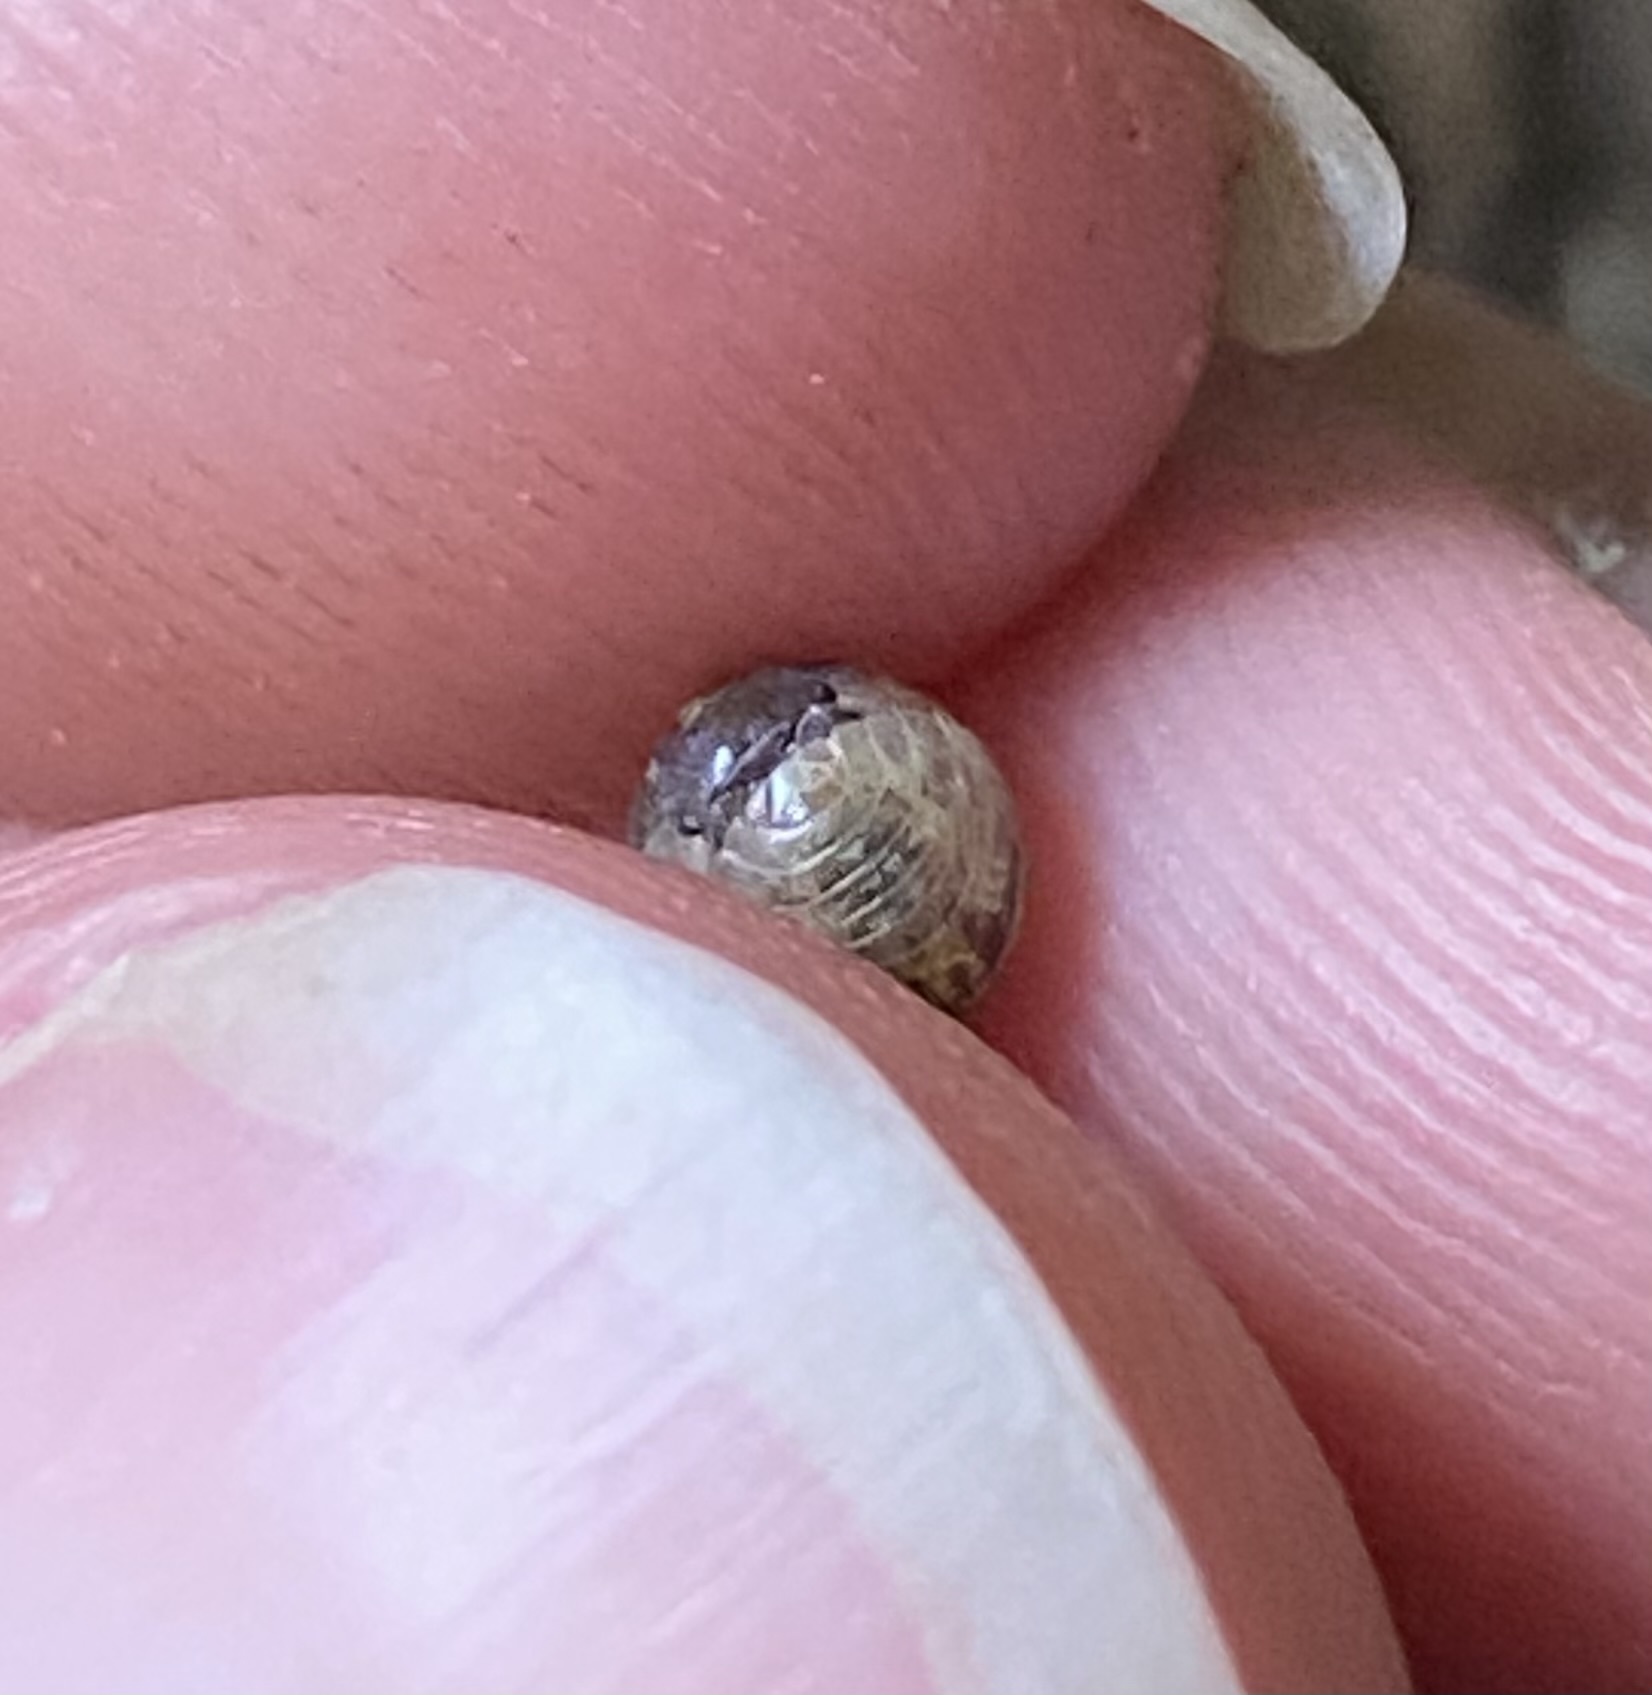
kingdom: Animalia
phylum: Arthropoda
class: Malacostraca
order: Isopoda
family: Armadillidiidae
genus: Armadillidium
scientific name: Armadillidium vulgare
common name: Common pill woodlouse
